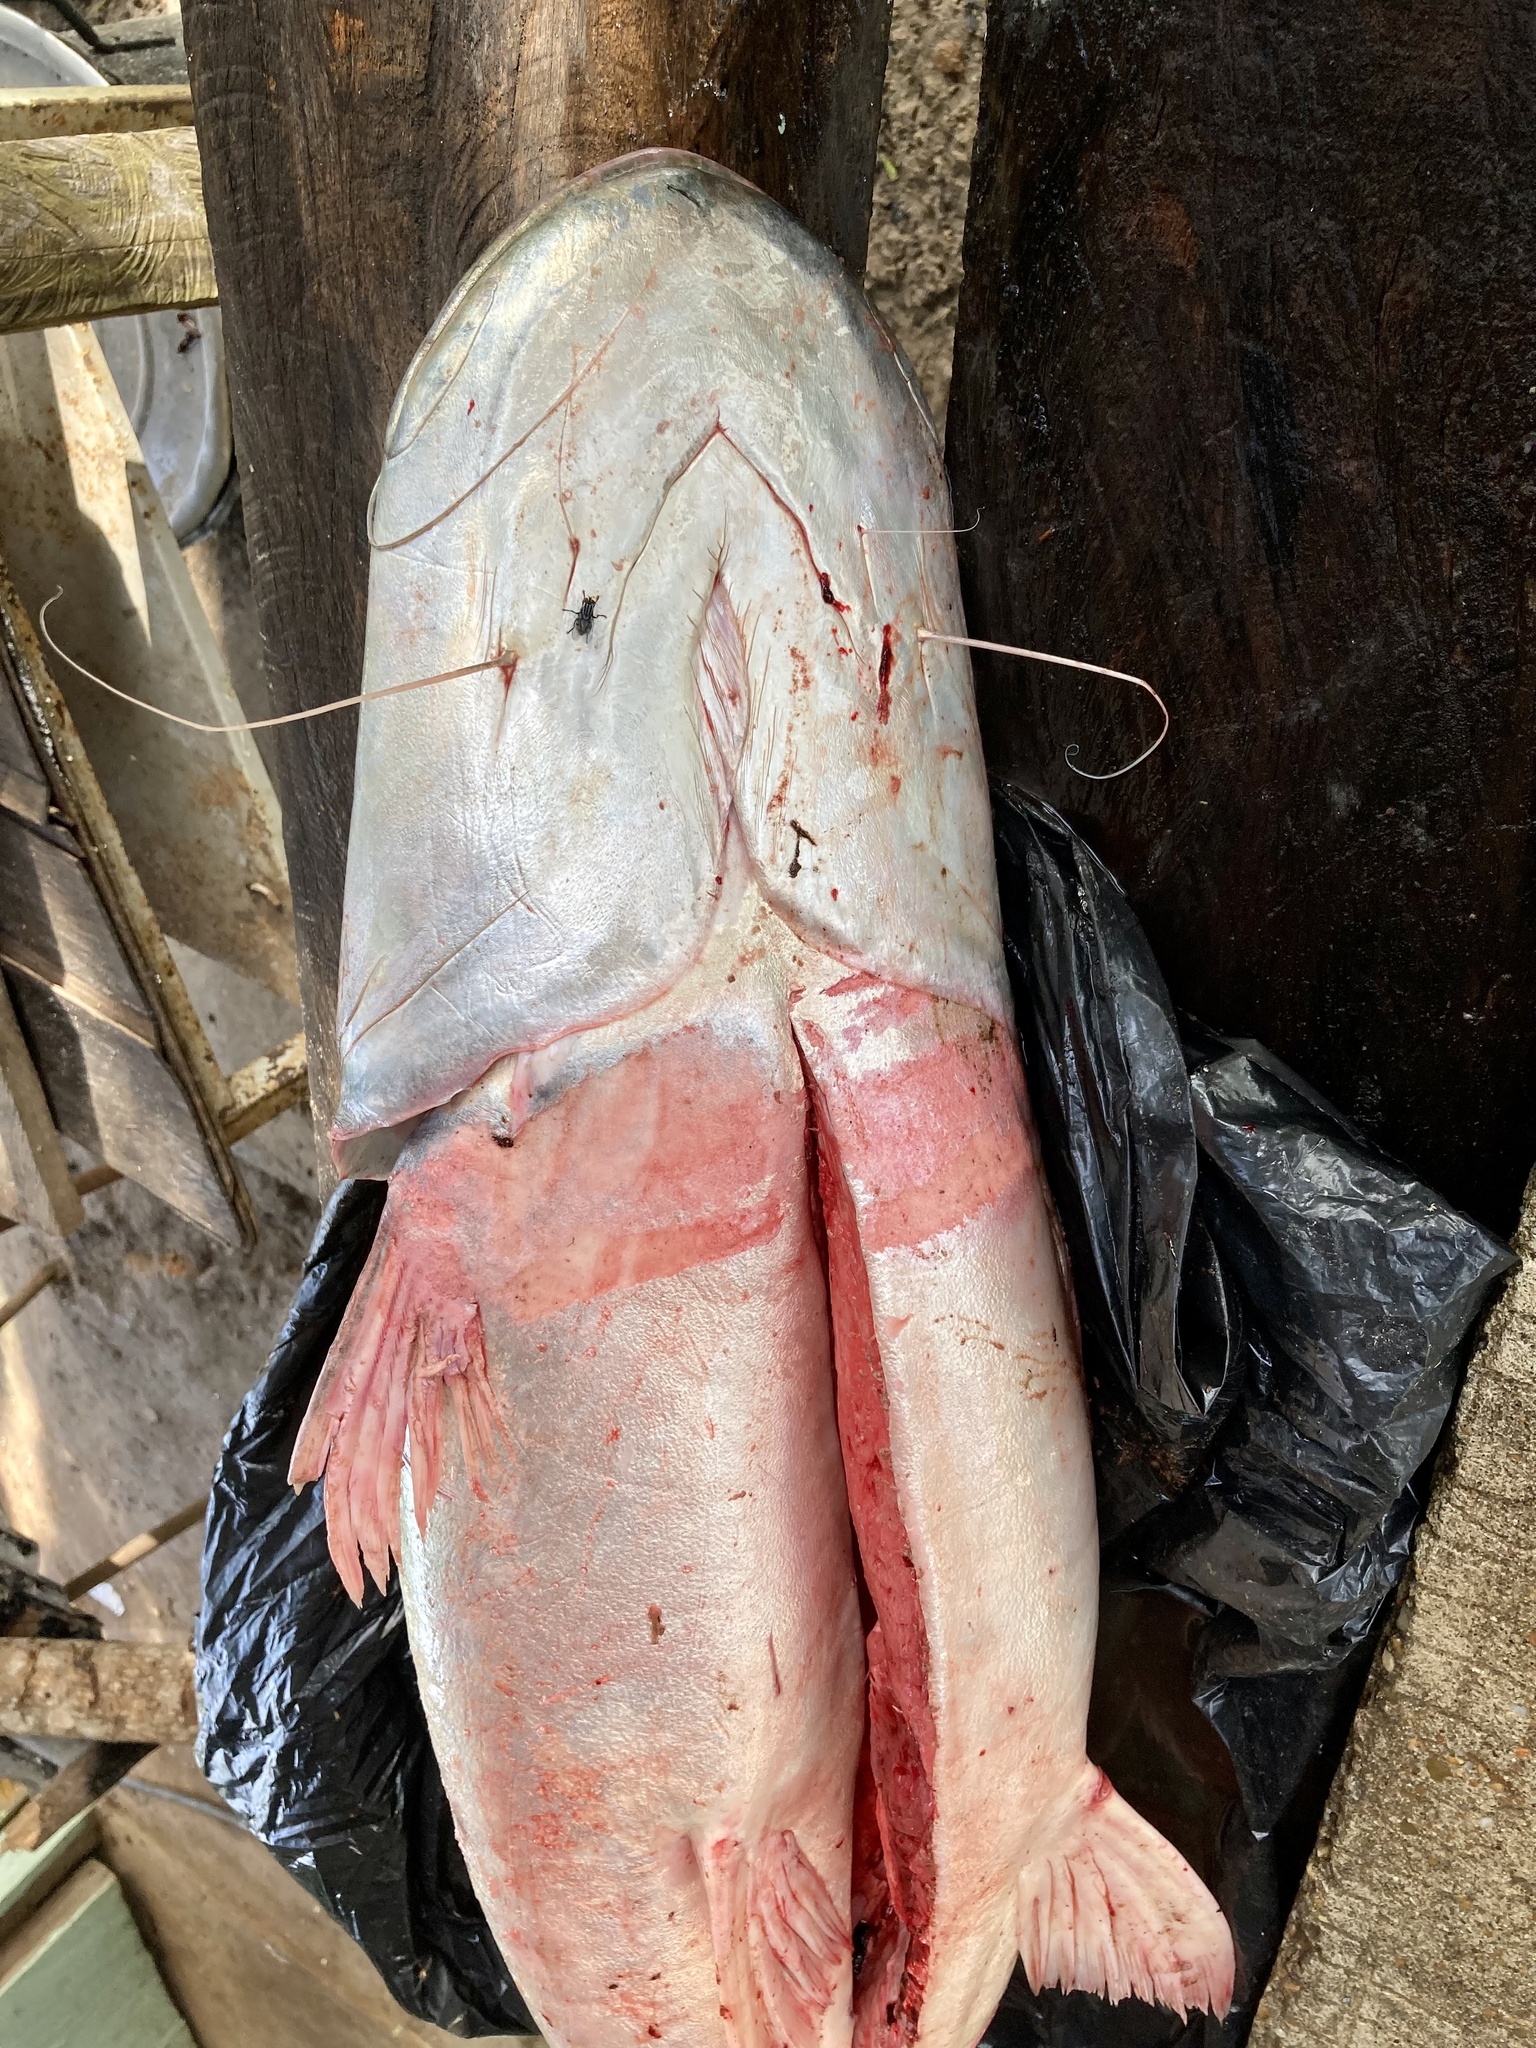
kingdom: Animalia
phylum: Chordata
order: Siluriformes
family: Pimelodidae
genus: Brachyplatystoma
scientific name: Brachyplatystoma rousseauxii
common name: Gilded catfish
